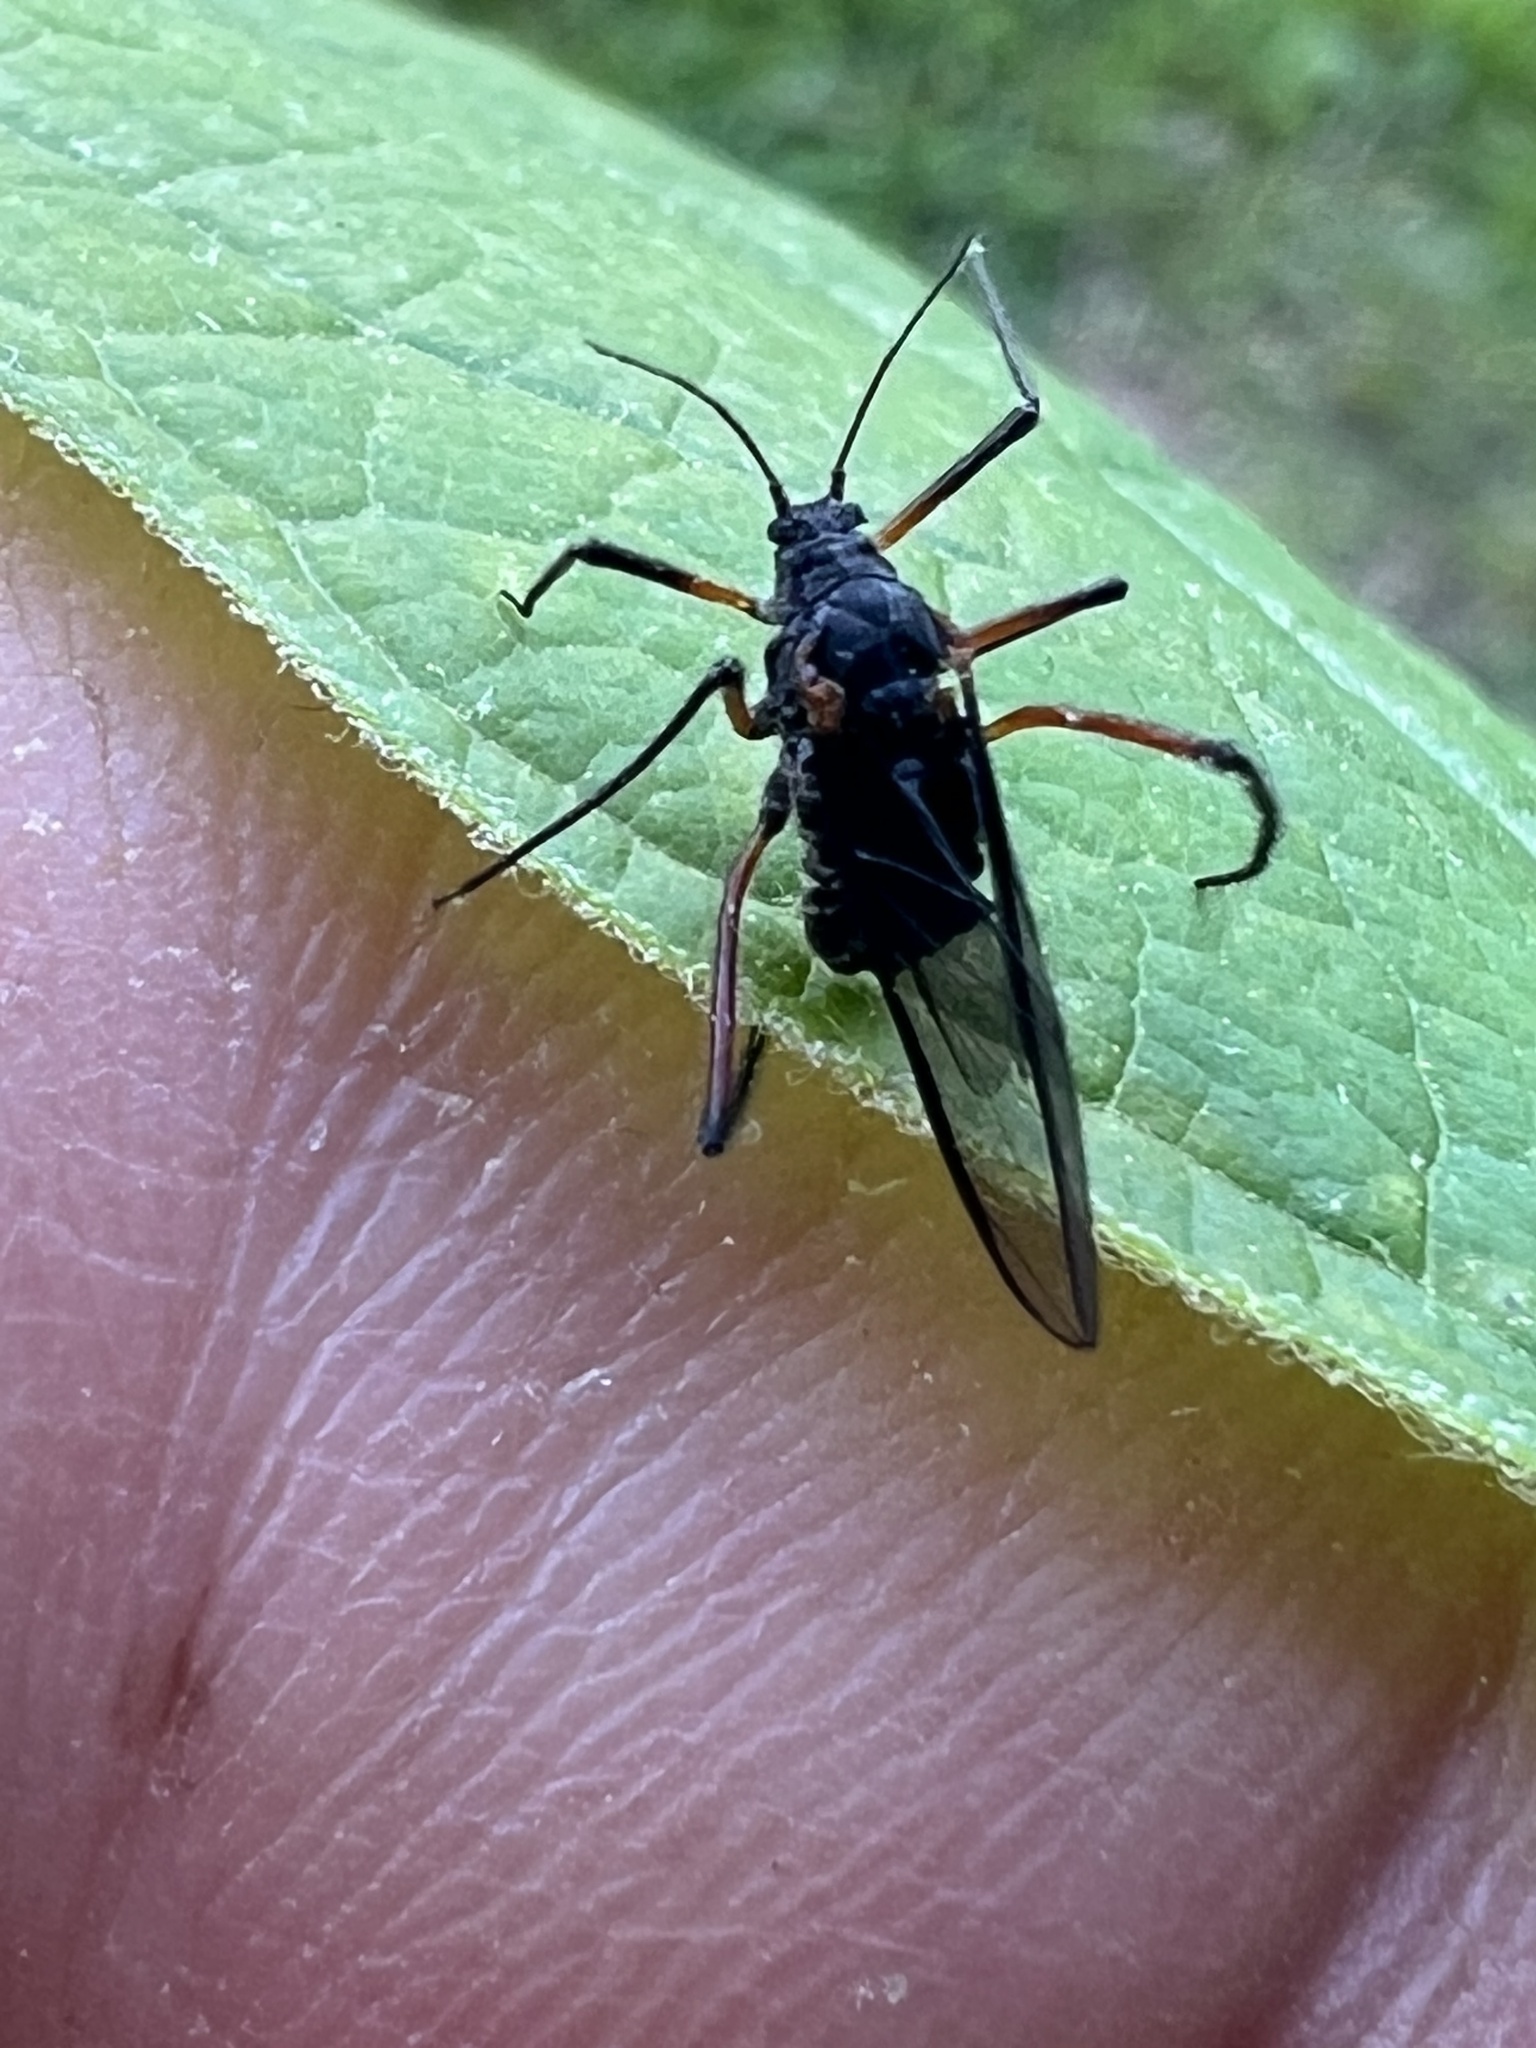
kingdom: Animalia
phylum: Arthropoda
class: Insecta
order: Hemiptera
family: Aphididae
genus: Longistigma
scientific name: Longistigma caryae
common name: Giant bark aphid
